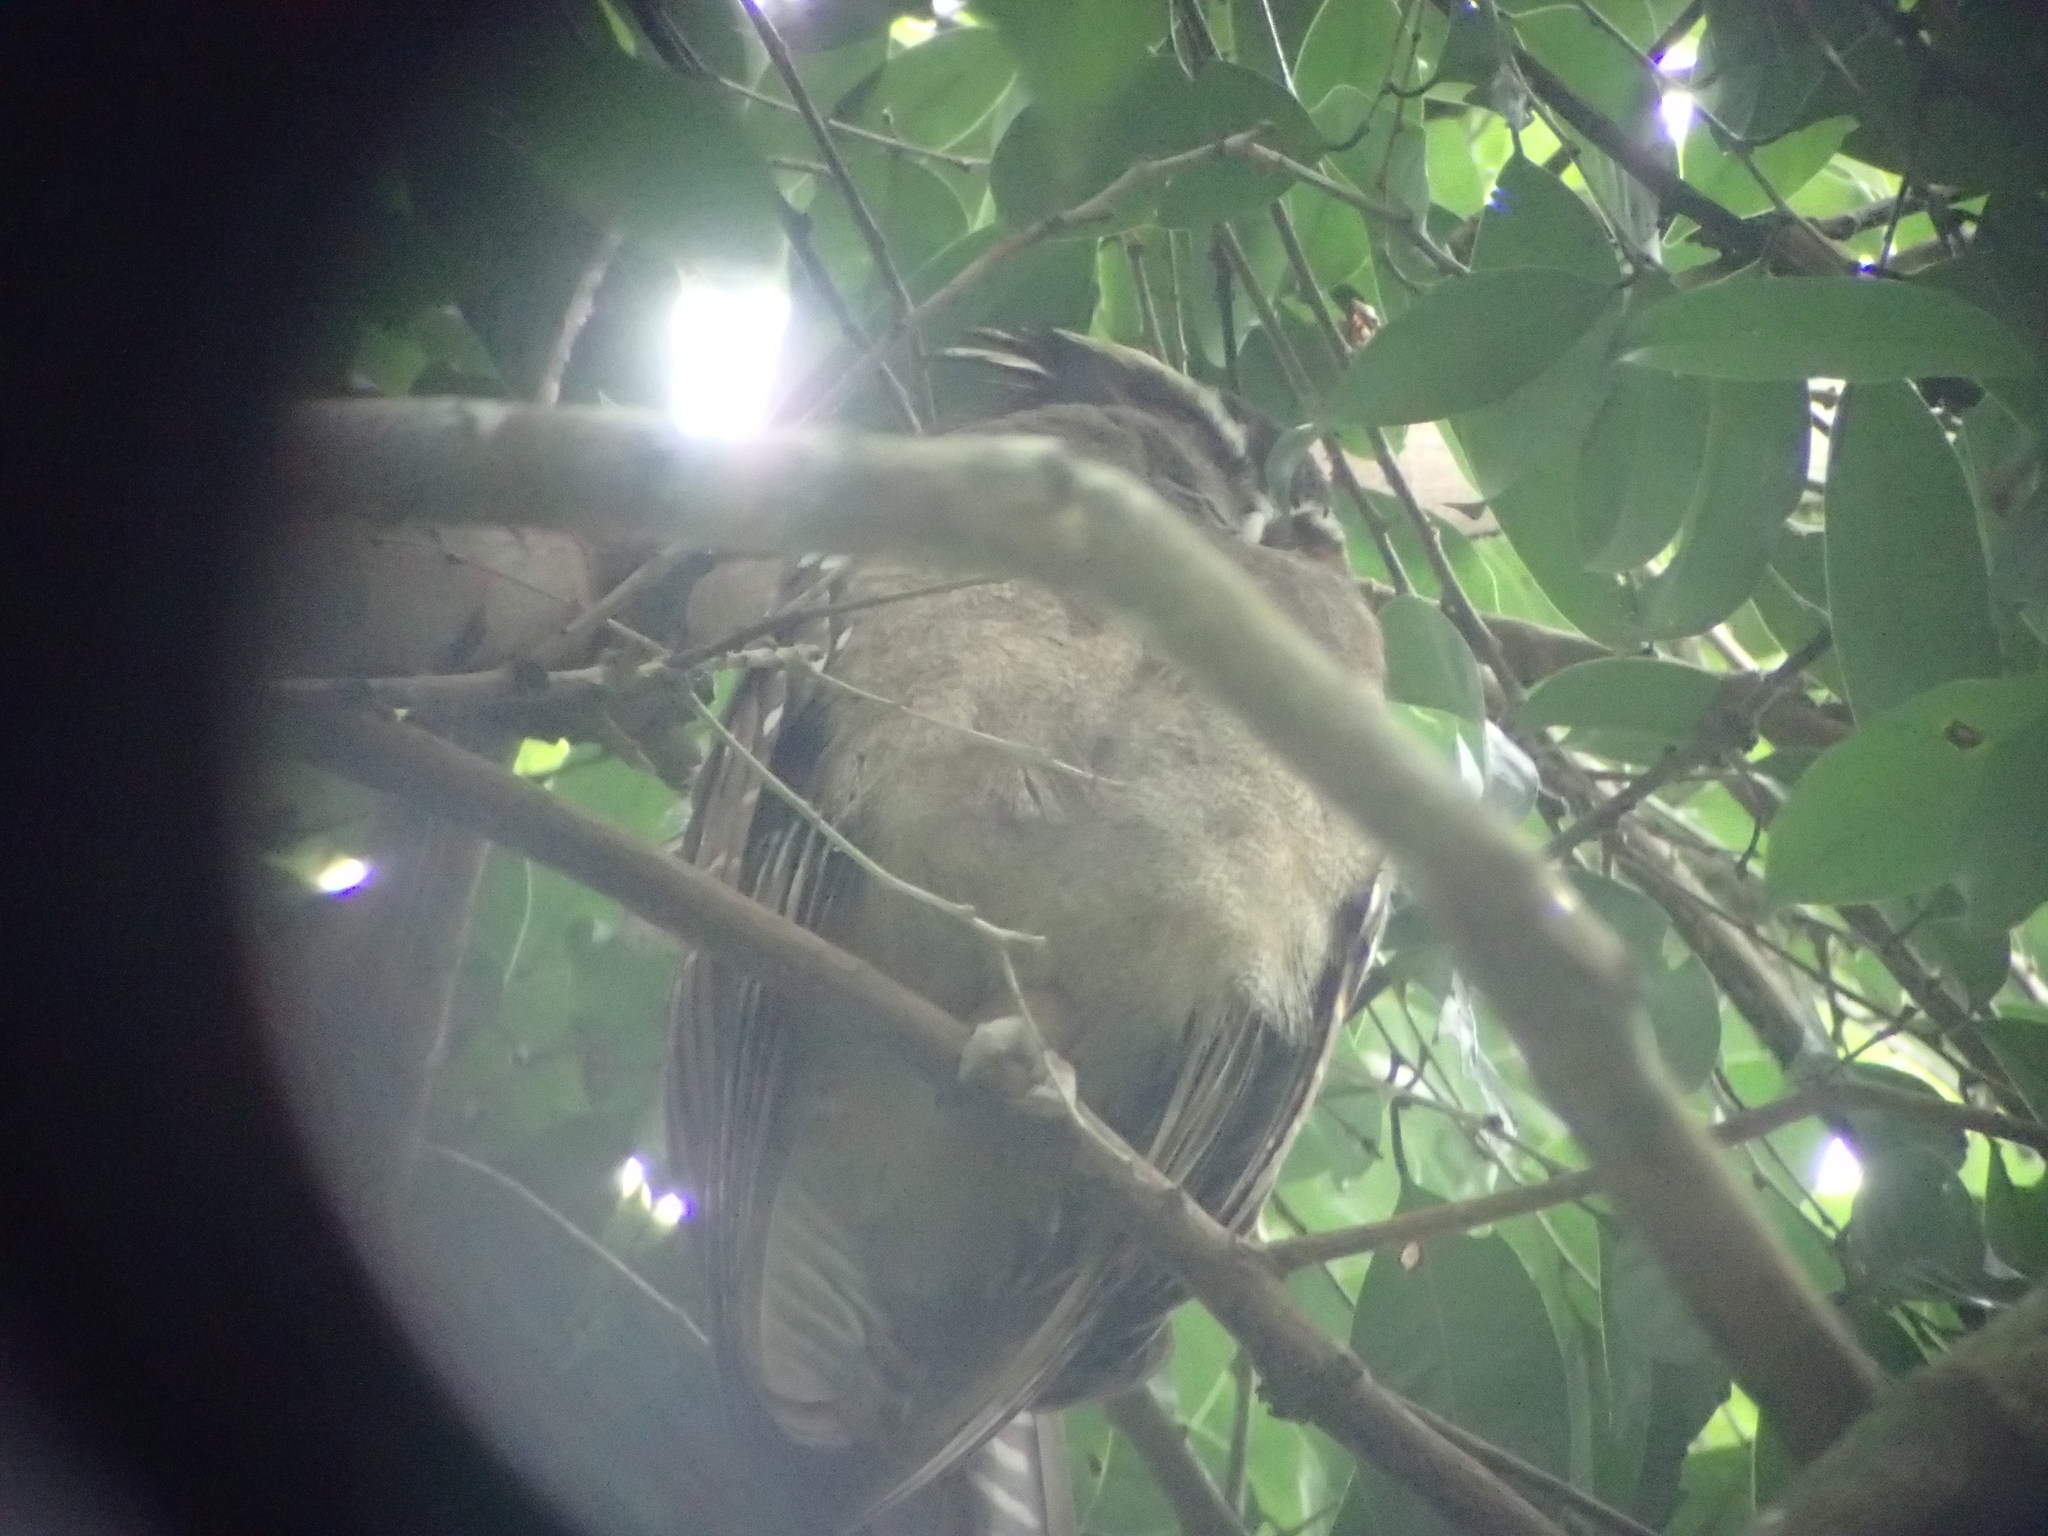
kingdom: Animalia
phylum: Chordata
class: Aves
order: Strigiformes
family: Strigidae
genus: Lophostrix
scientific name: Lophostrix cristata
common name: Crested owl
